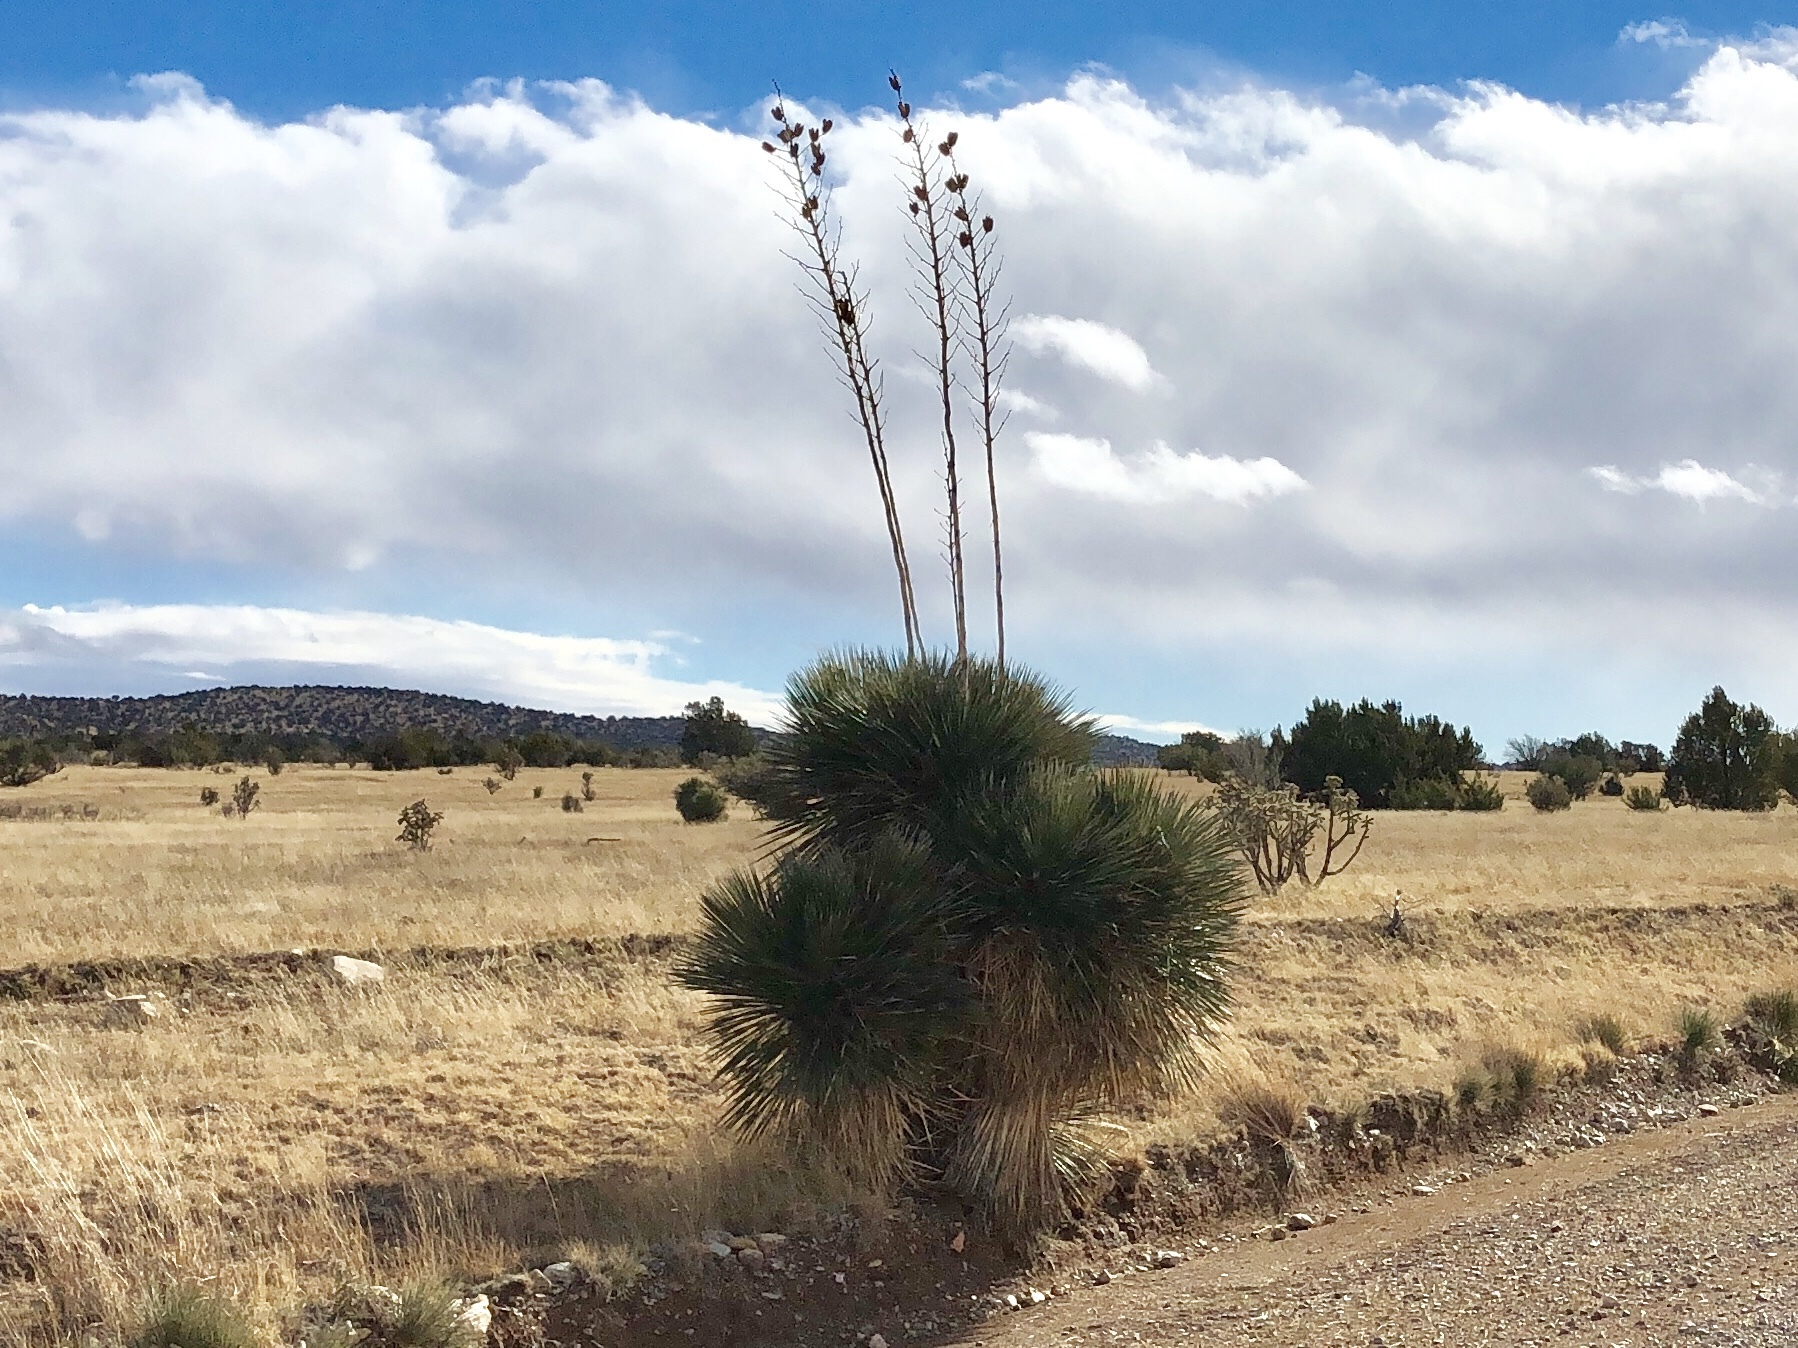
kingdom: Plantae
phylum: Tracheophyta
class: Liliopsida
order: Asparagales
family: Asparagaceae
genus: Yucca
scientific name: Yucca elata
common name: Palmella
